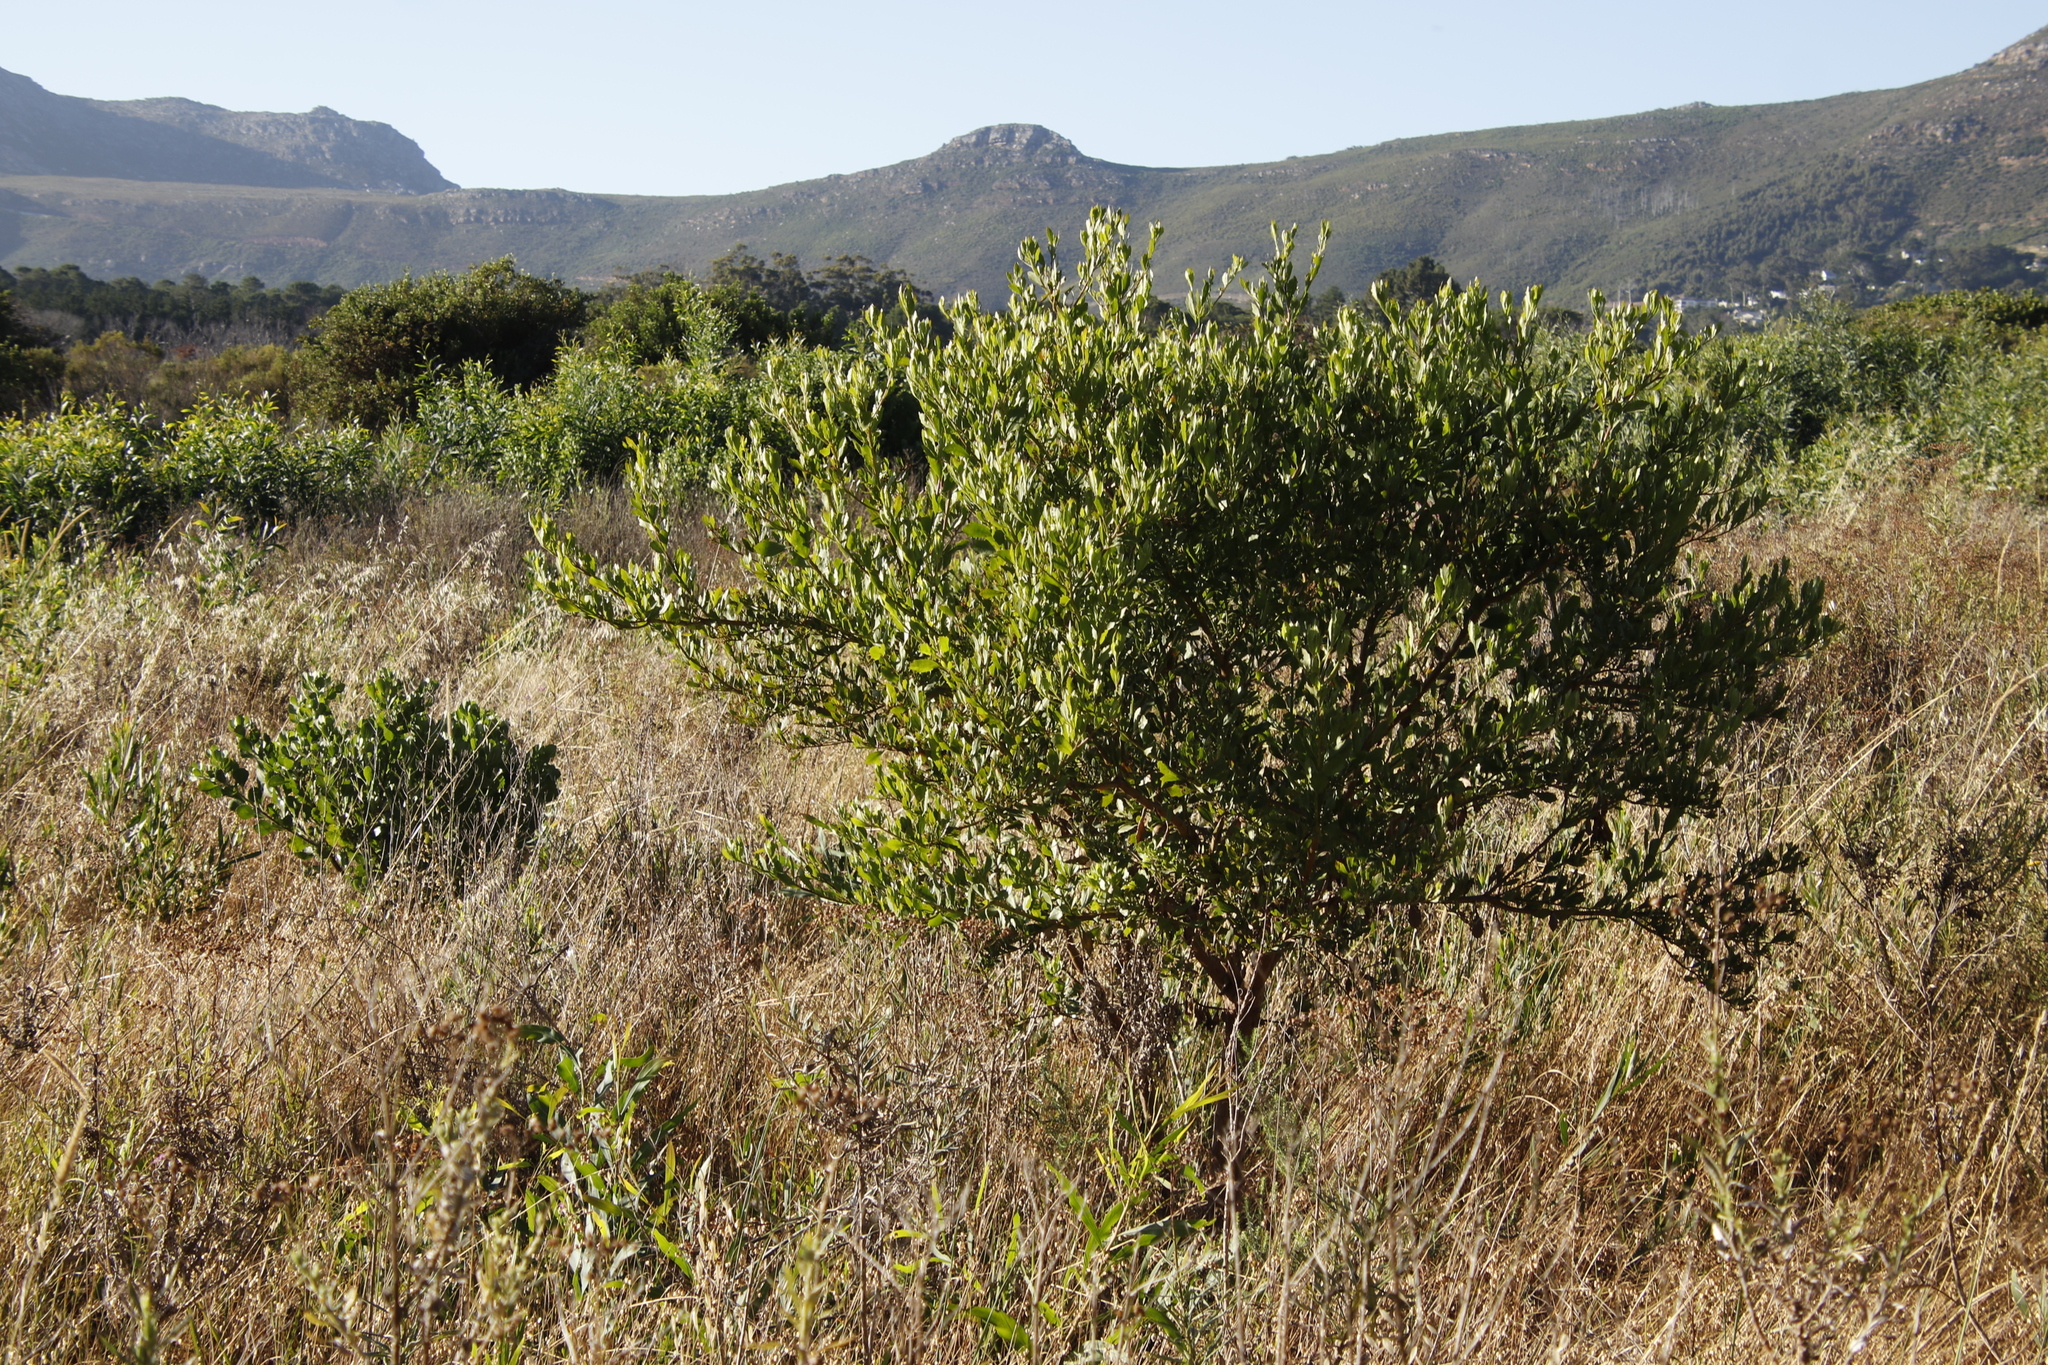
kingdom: Plantae
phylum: Tracheophyta
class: Magnoliopsida
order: Asterales
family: Asteraceae
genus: Osteospermum
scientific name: Osteospermum moniliferum
